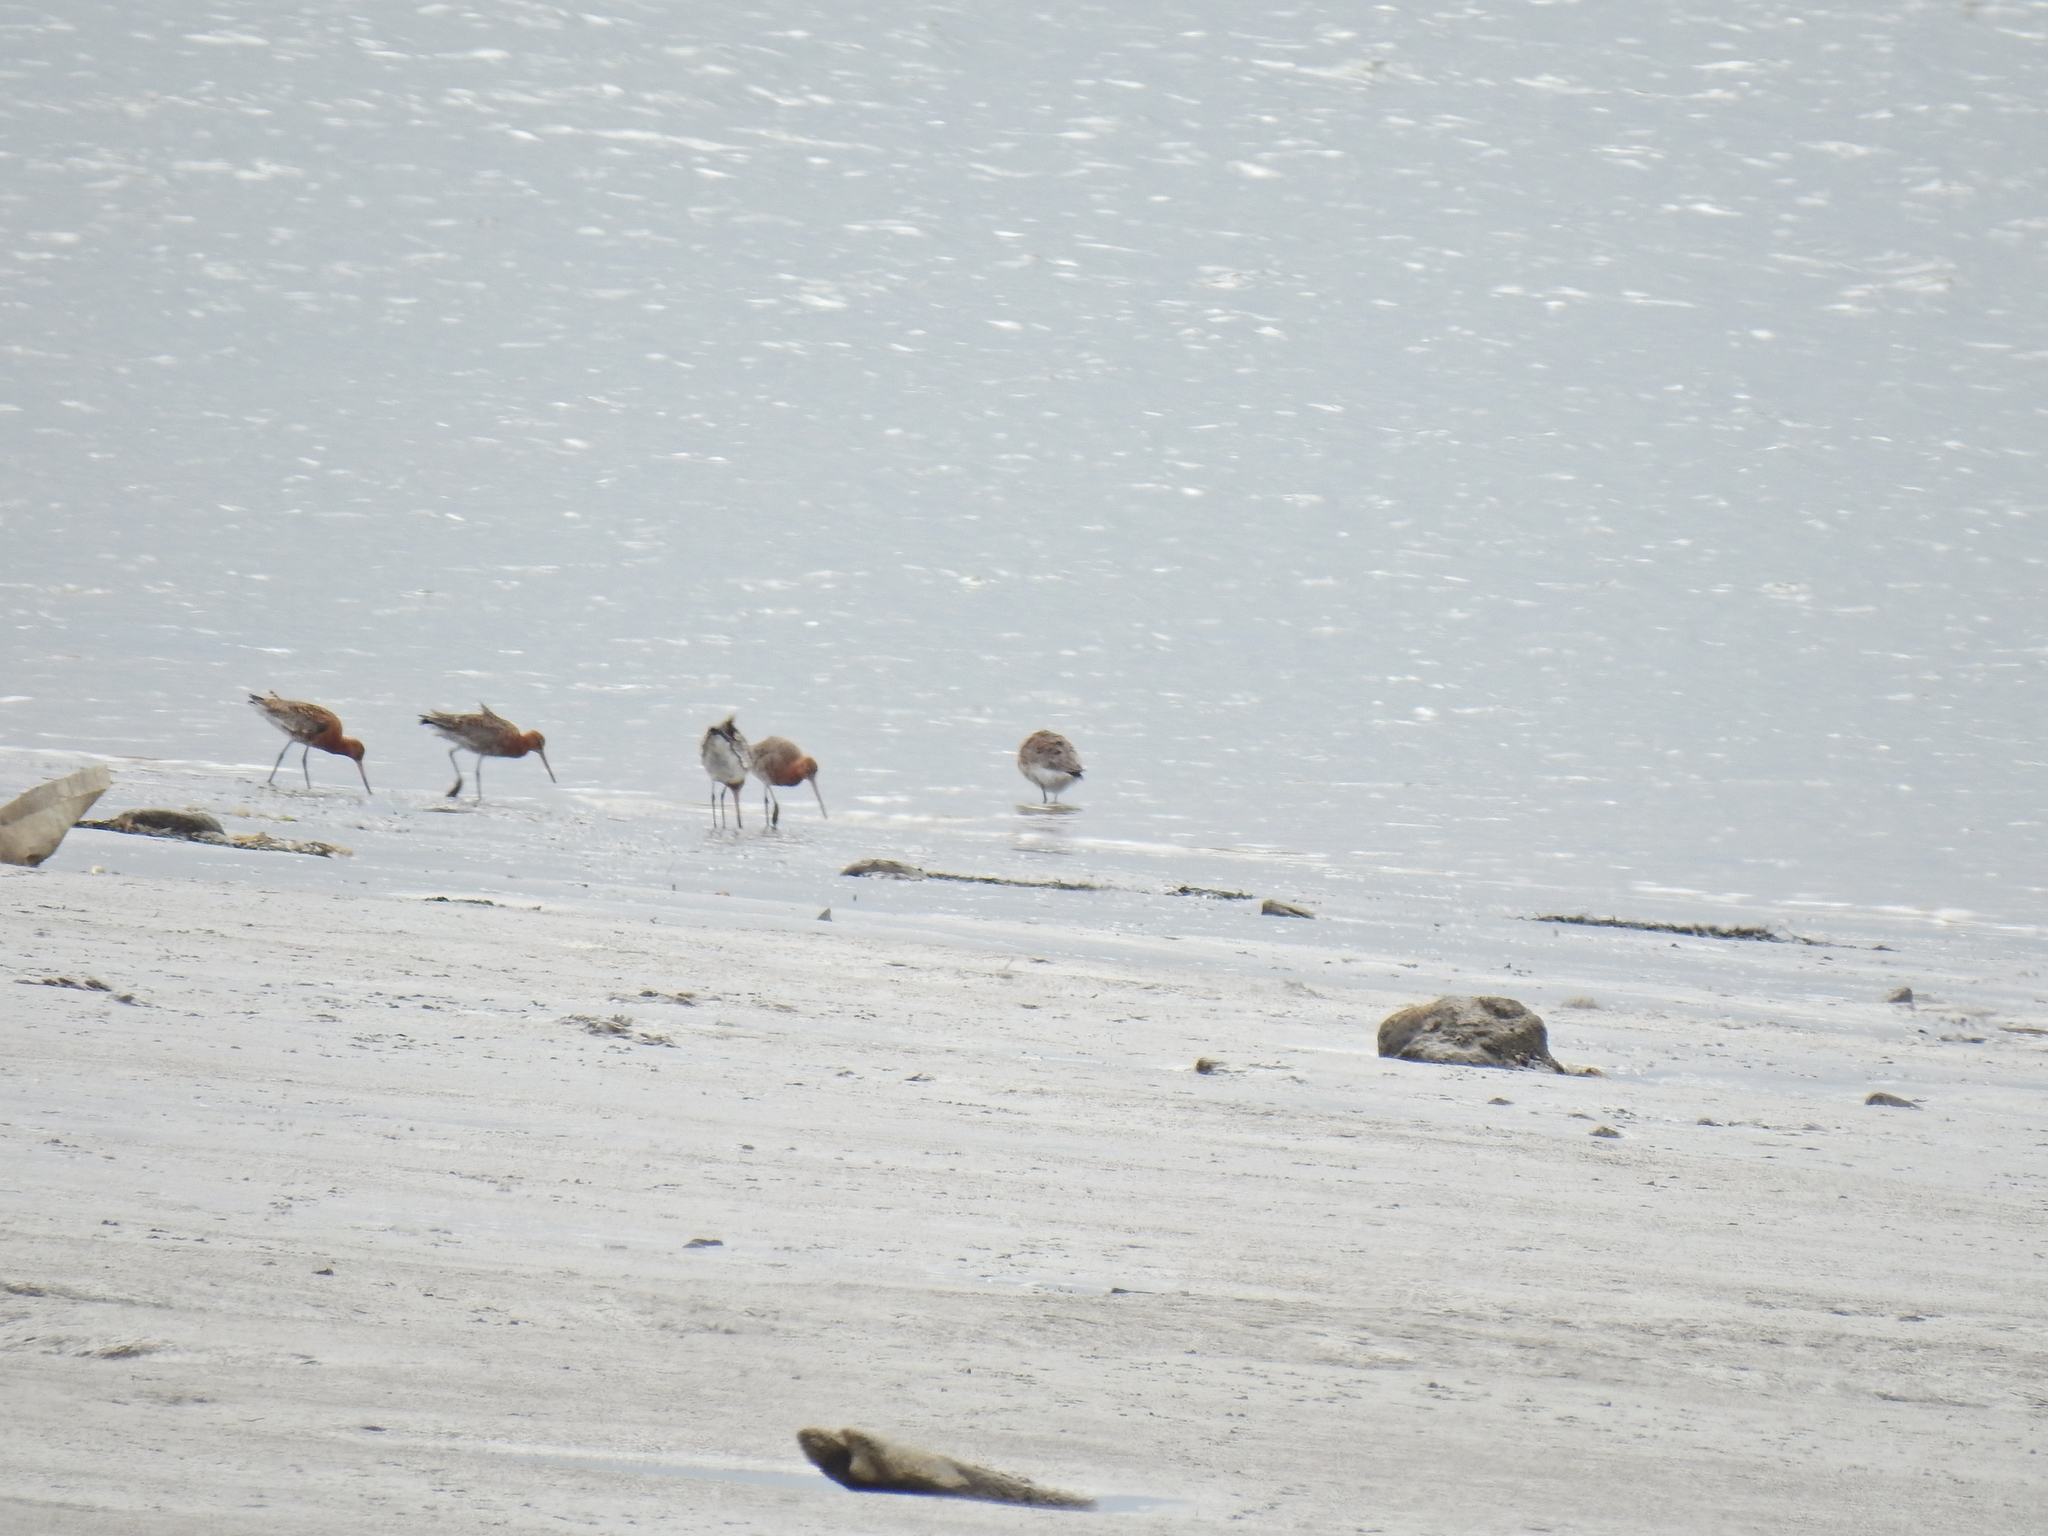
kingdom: Animalia
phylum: Chordata
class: Aves
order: Charadriiformes
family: Scolopacidae
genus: Limosa
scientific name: Limosa limosa
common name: Black-tailed godwit
